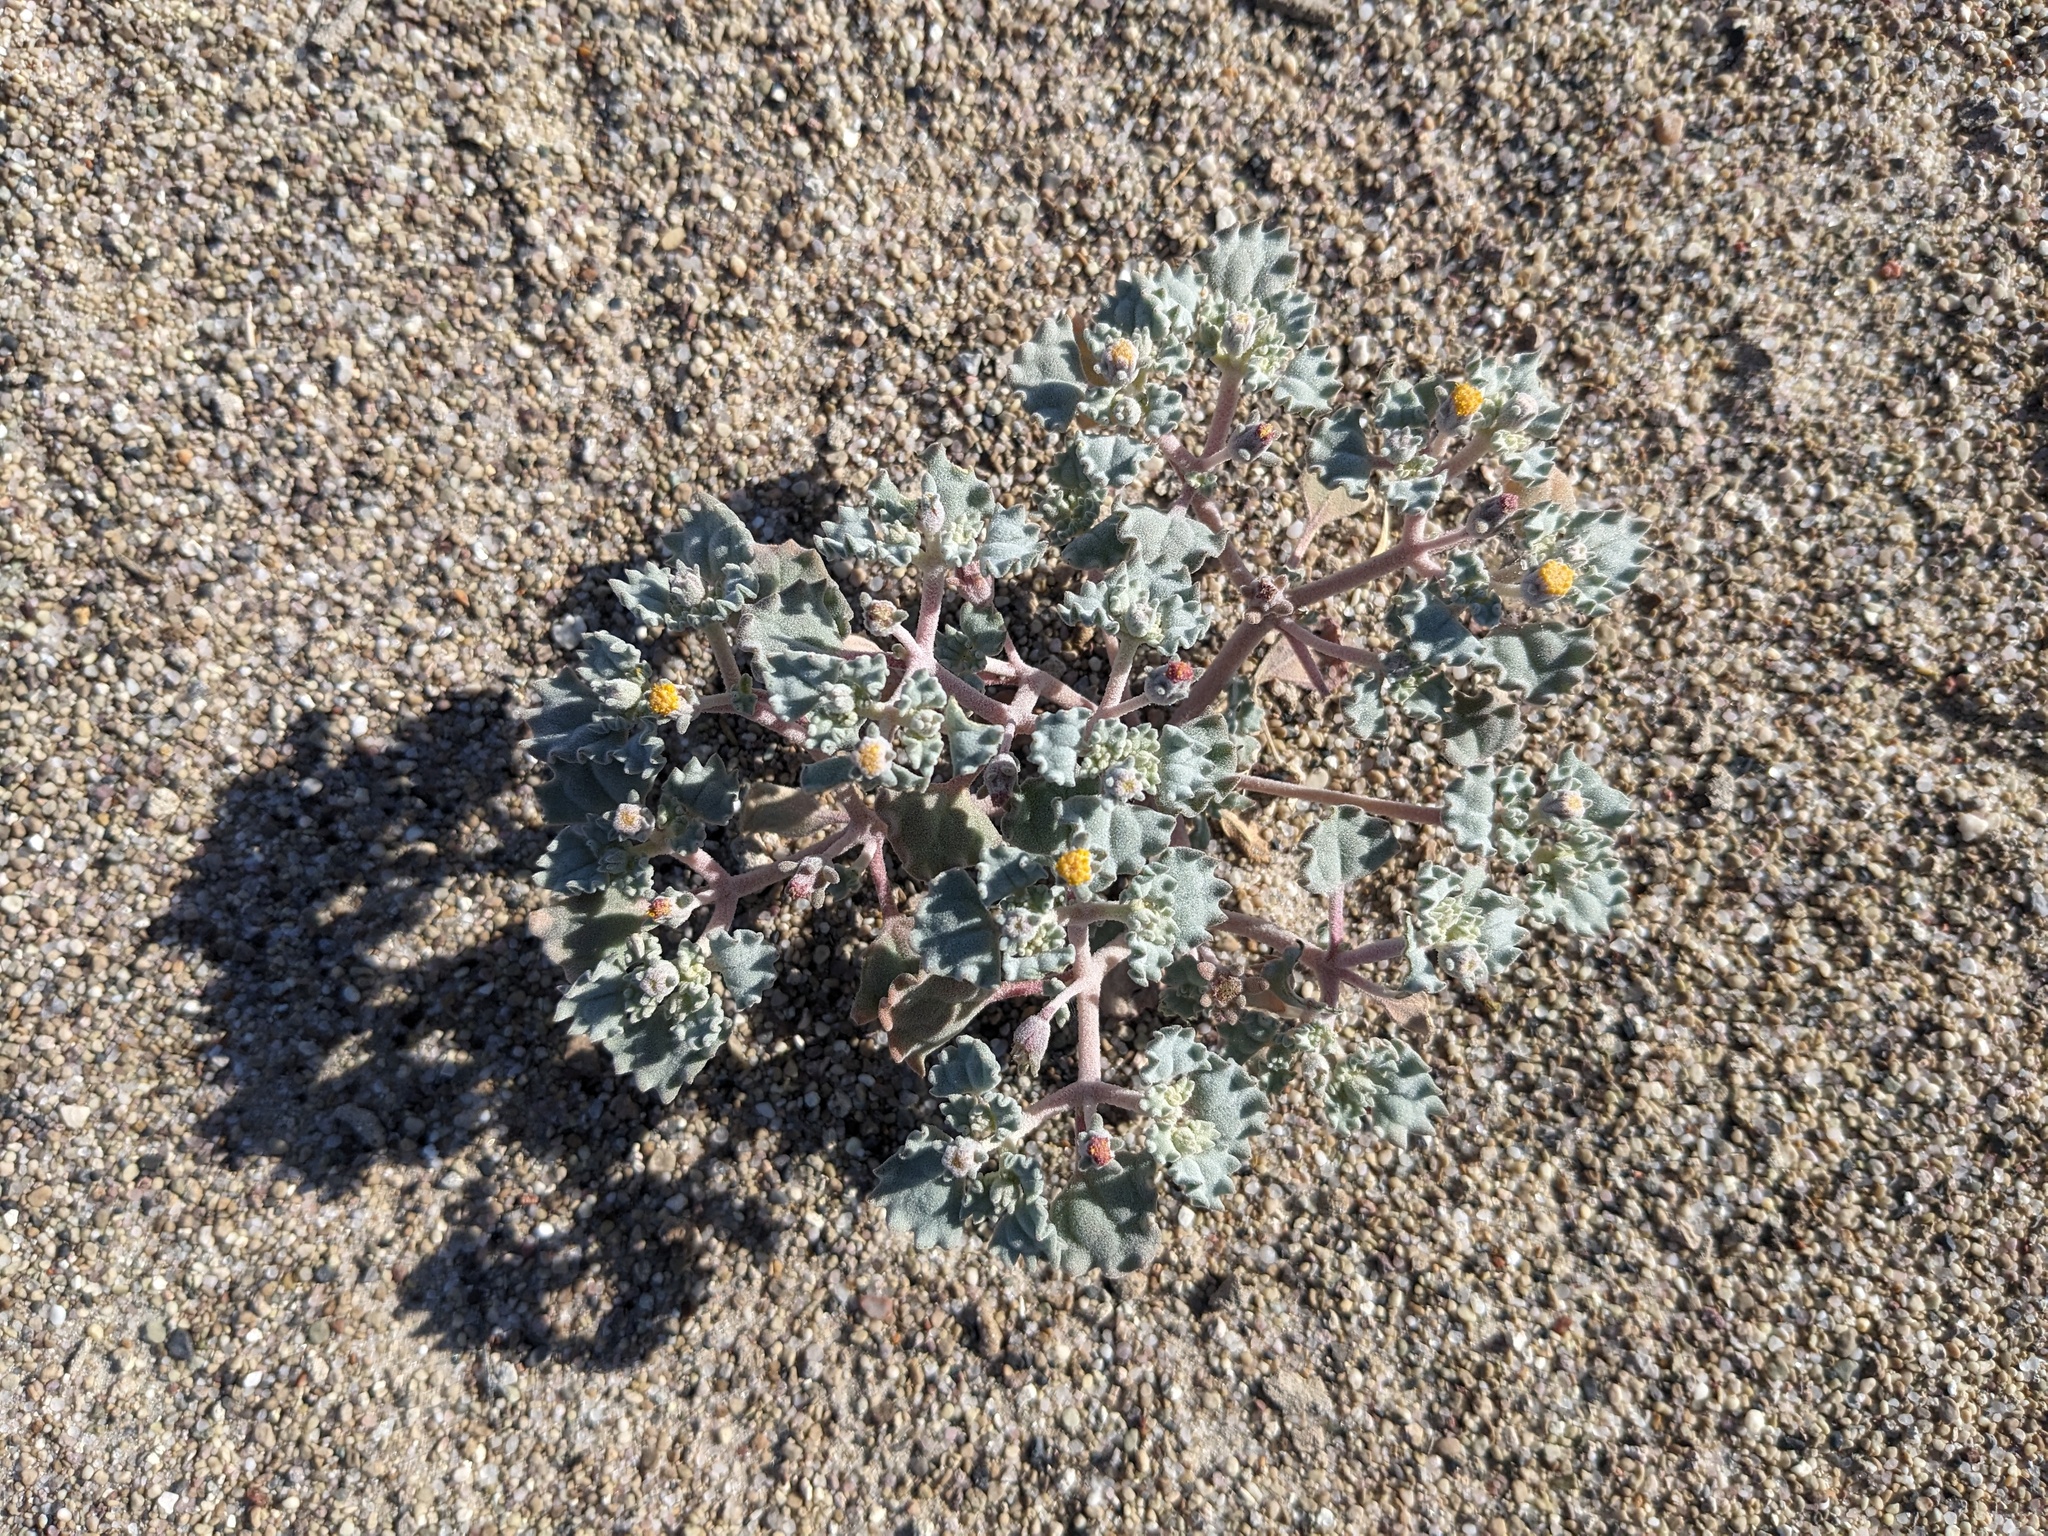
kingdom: Plantae
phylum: Tracheophyta
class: Magnoliopsida
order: Asterales
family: Asteraceae
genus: Psathyrotes
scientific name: Psathyrotes annua
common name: Mealy rosettes
